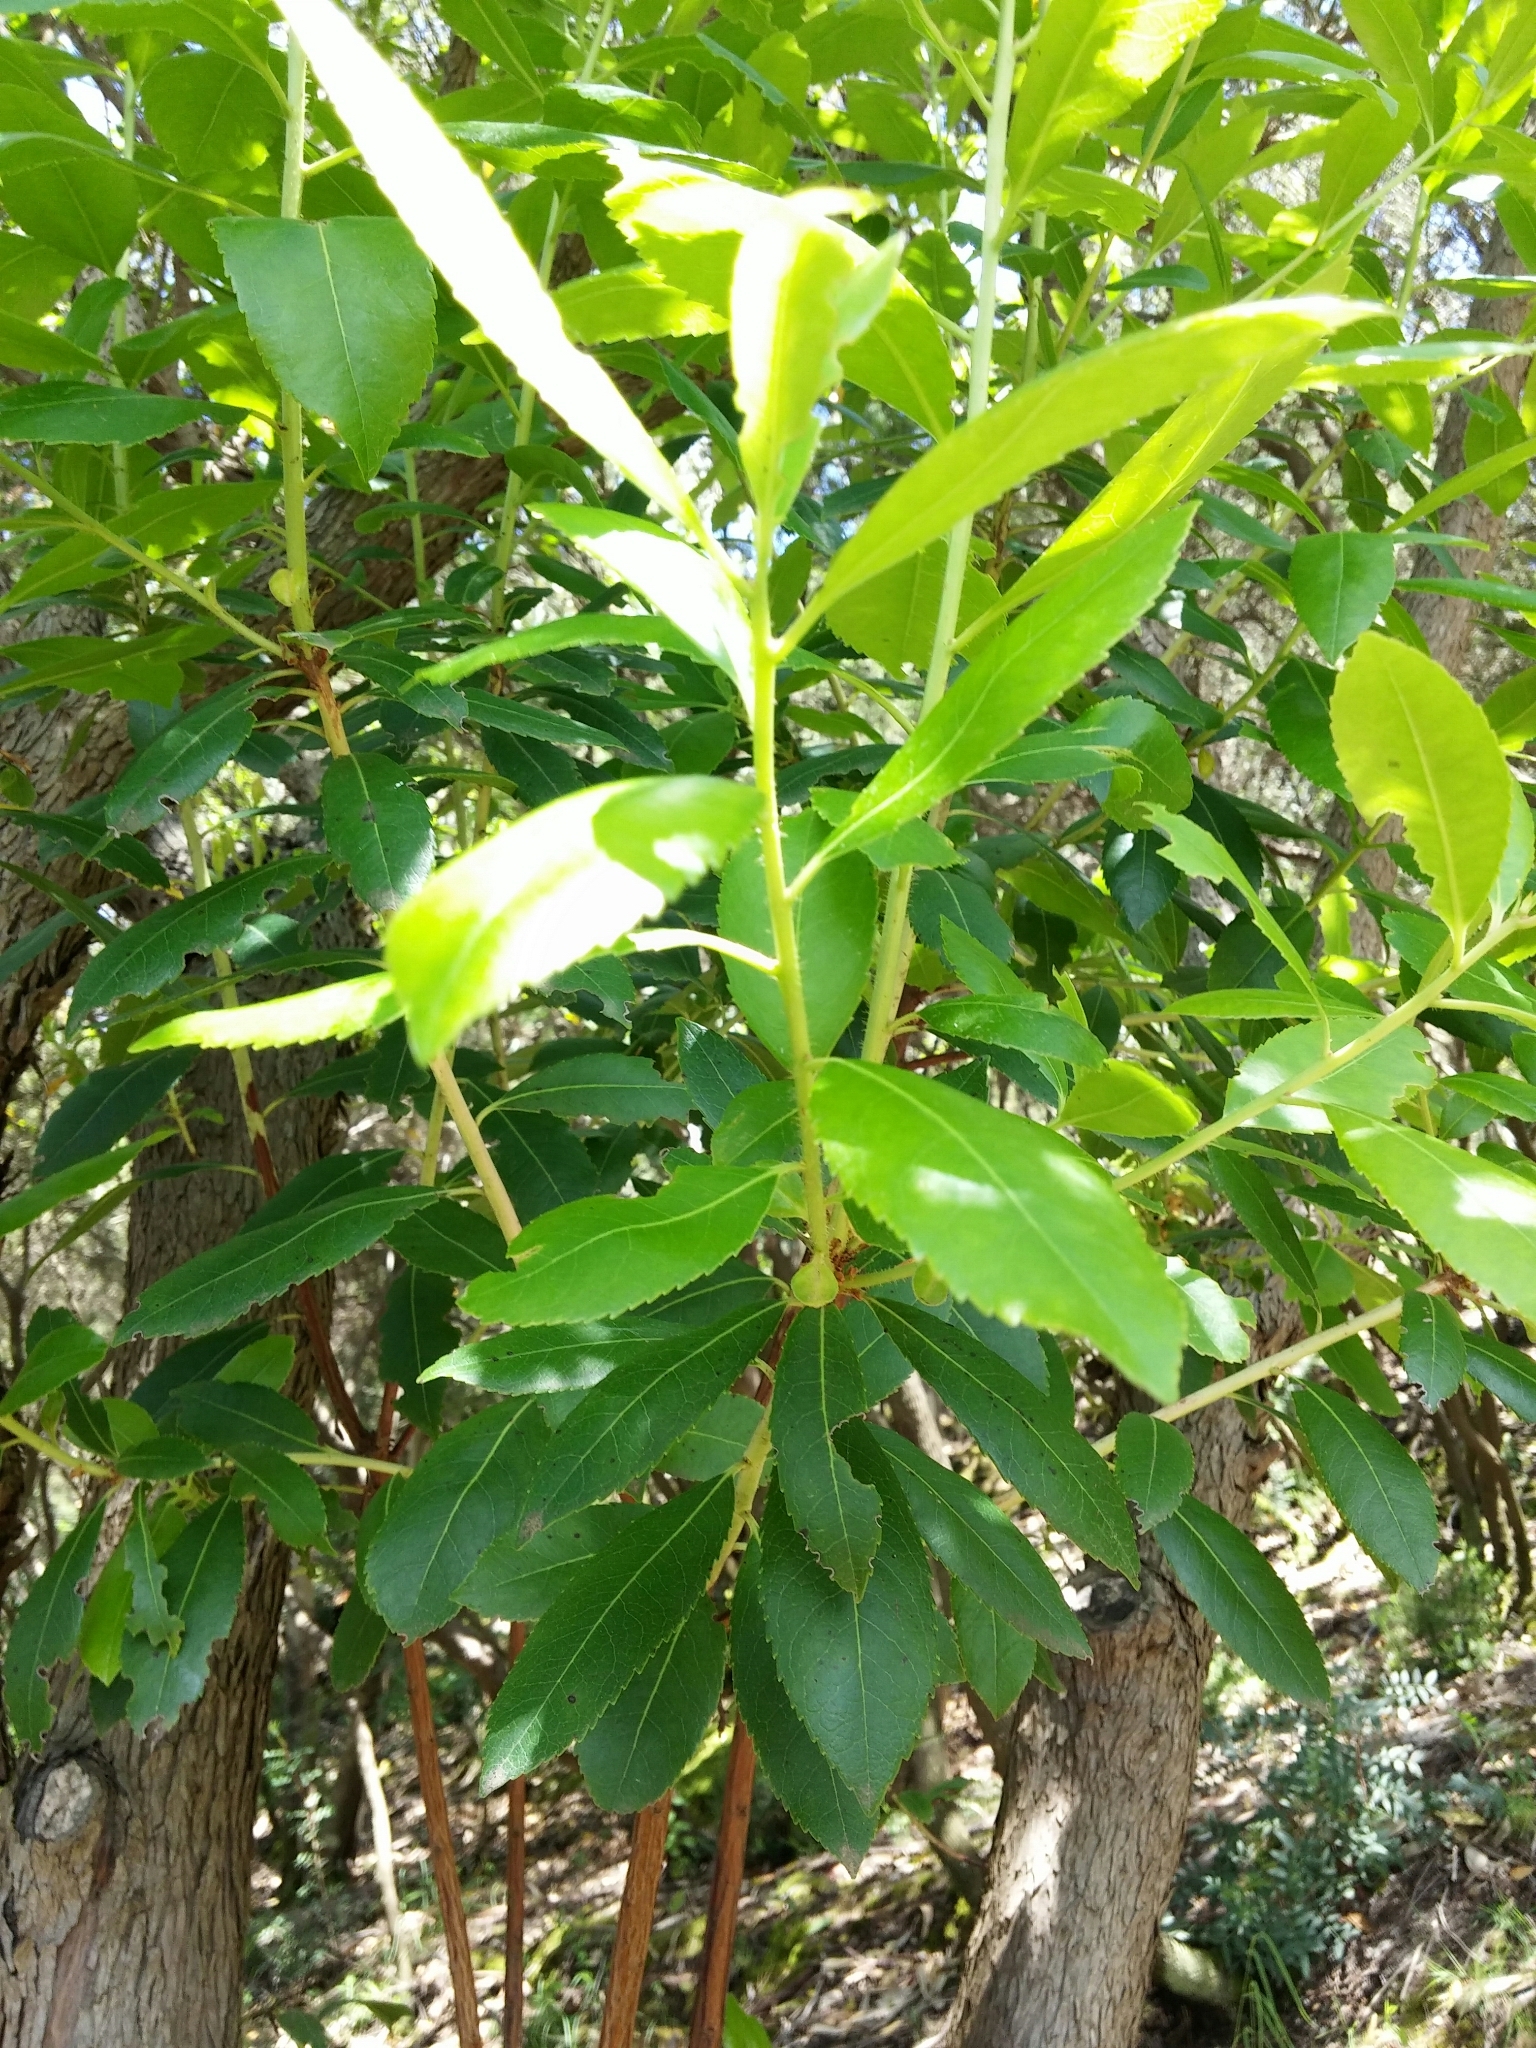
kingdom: Plantae
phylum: Tracheophyta
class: Magnoliopsida
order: Ericales
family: Ericaceae
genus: Arbutus
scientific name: Arbutus unedo
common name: Strawberry-tree
